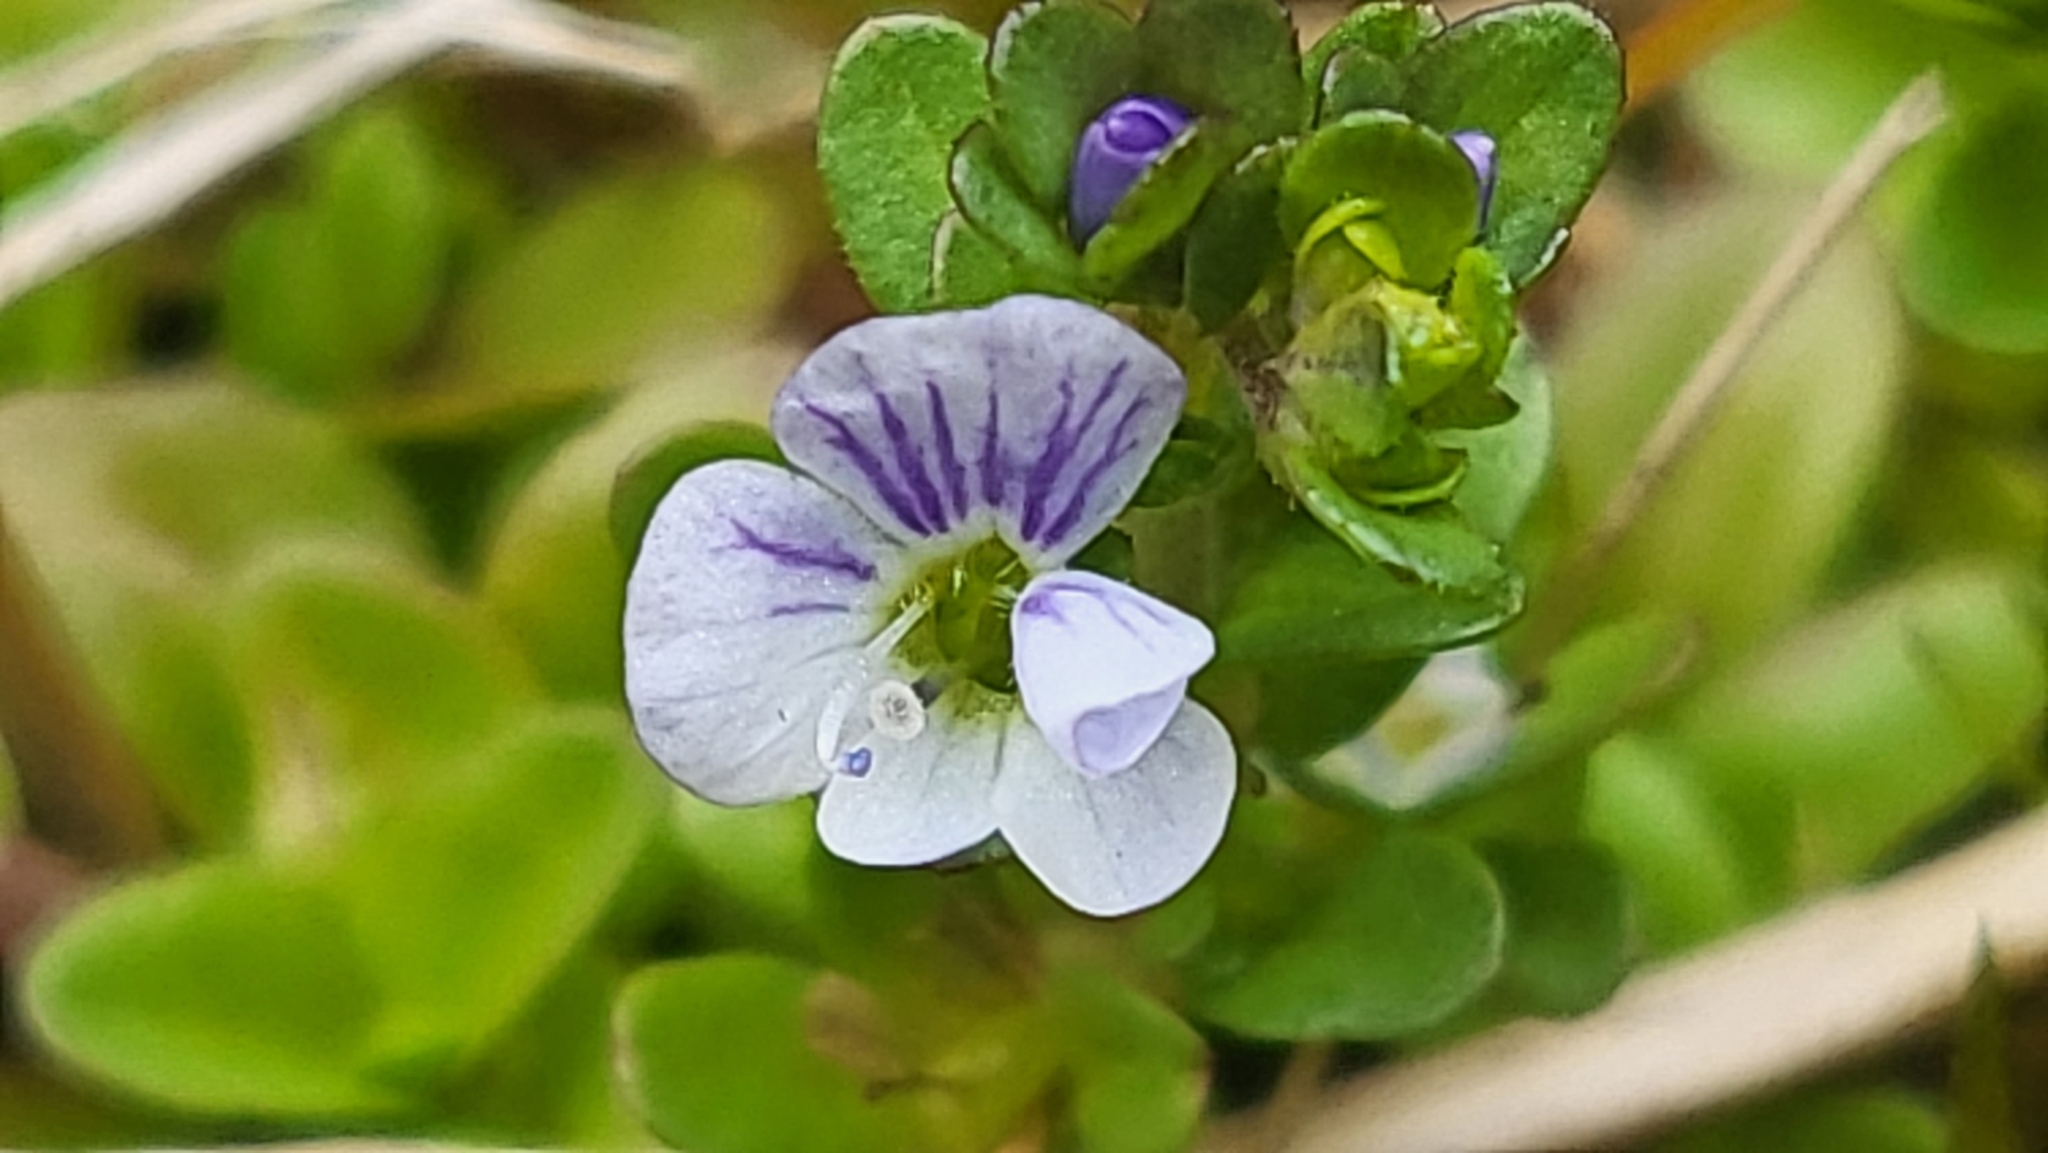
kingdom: Plantae
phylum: Tracheophyta
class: Magnoliopsida
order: Lamiales
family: Plantaginaceae
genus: Veronica
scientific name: Veronica serpyllifolia
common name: Thyme-leaved speedwell
